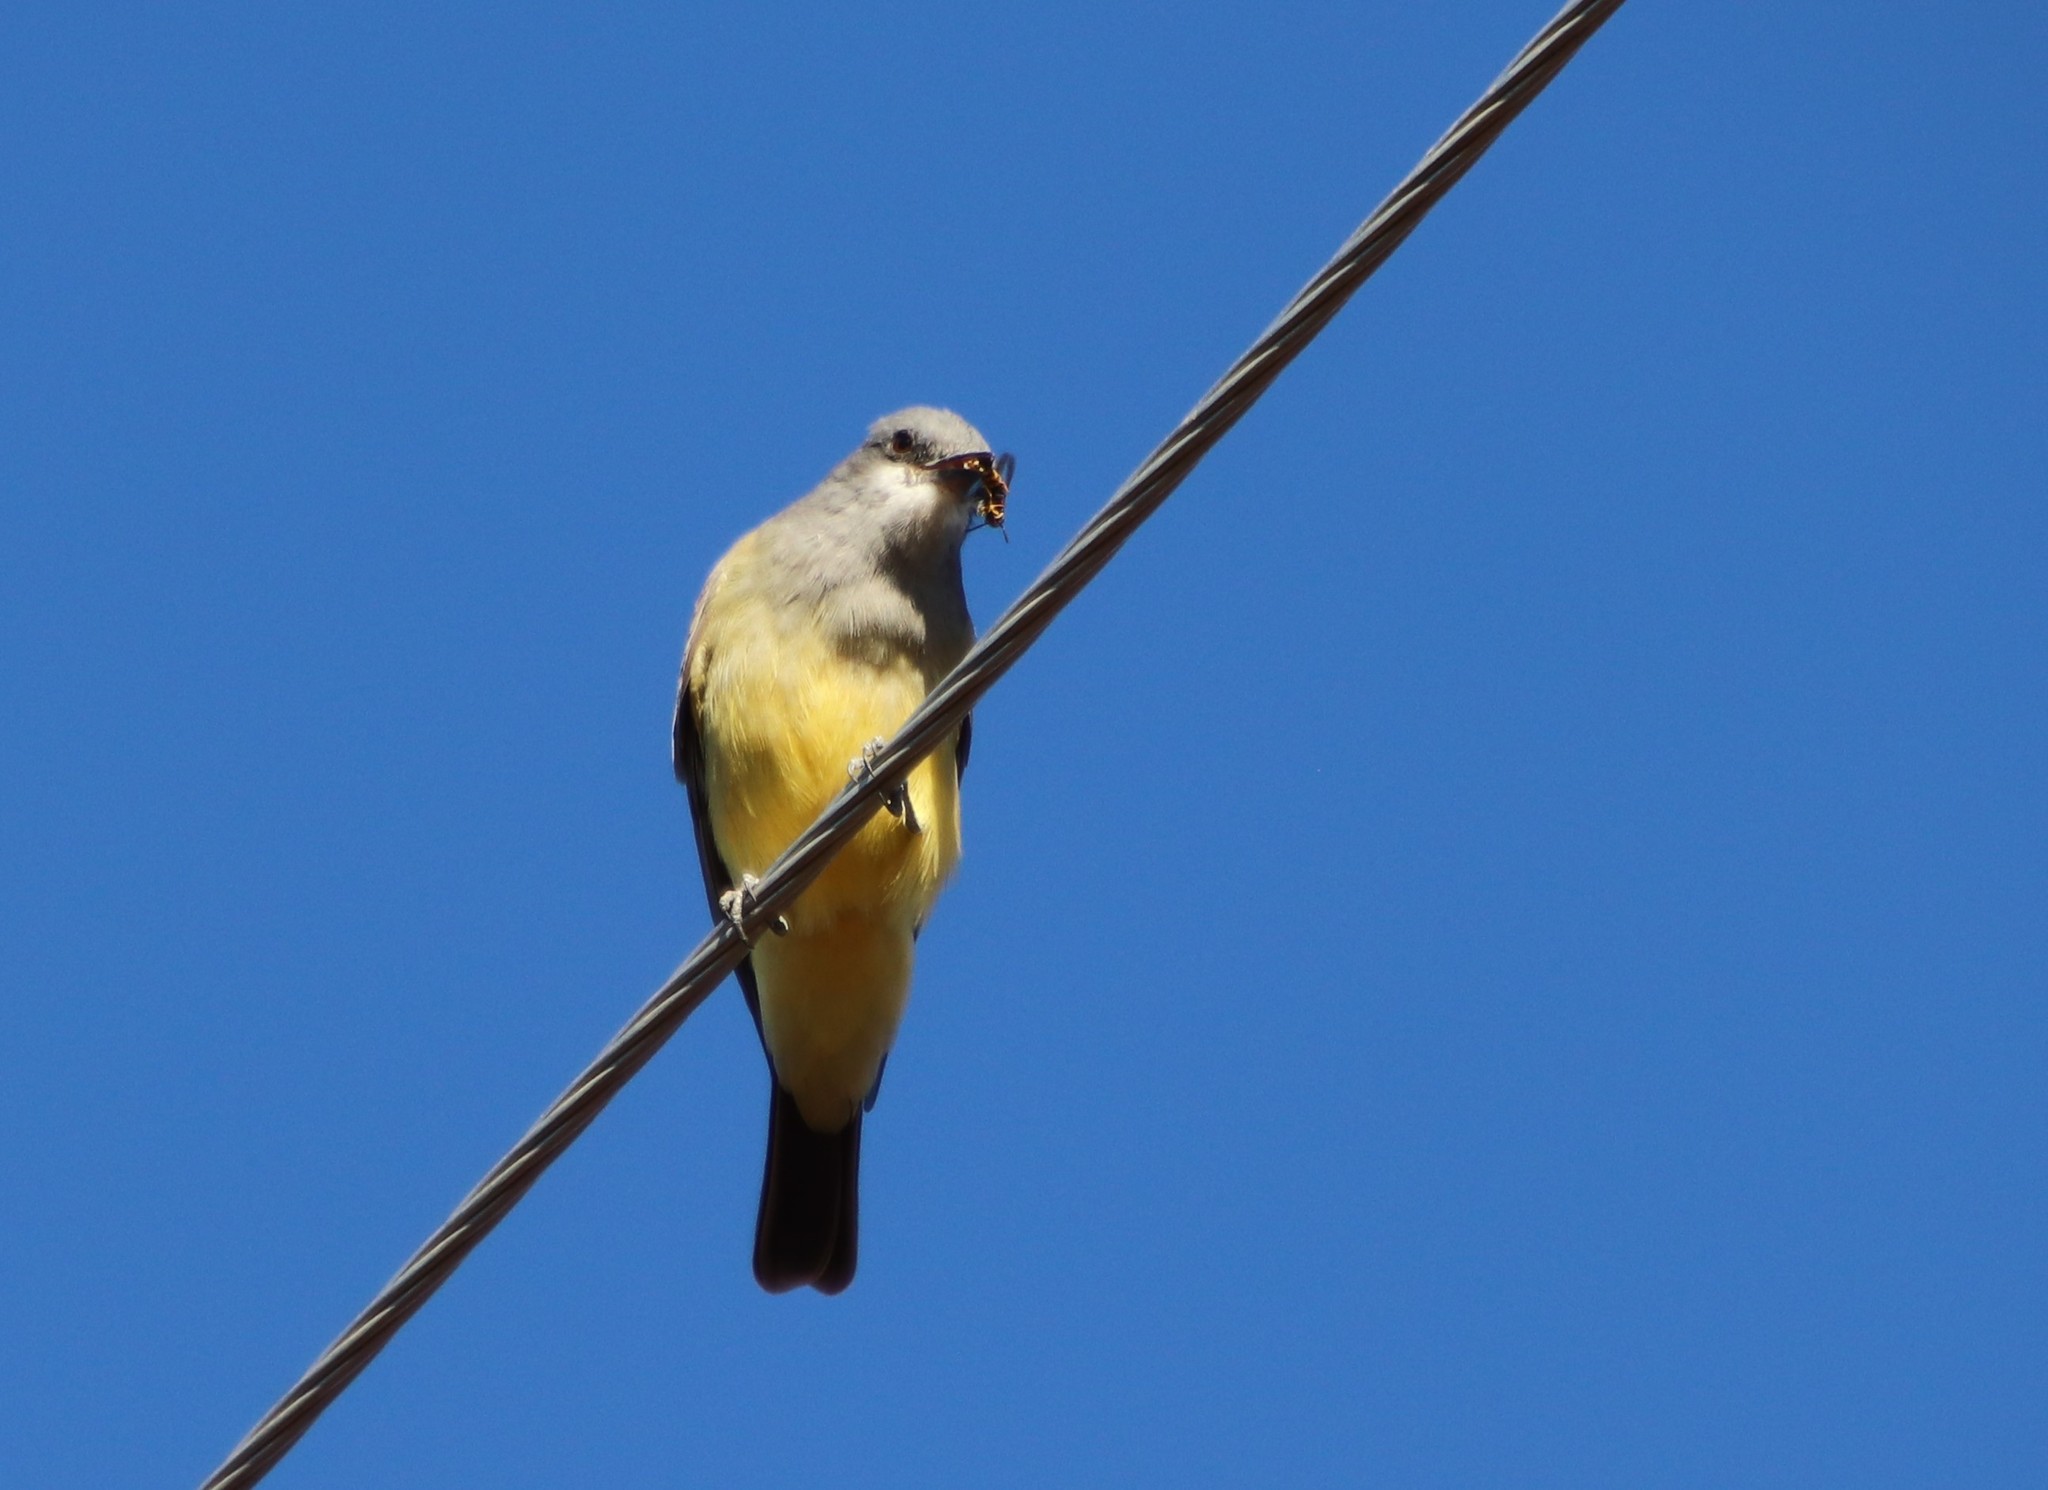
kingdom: Animalia
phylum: Chordata
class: Aves
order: Passeriformes
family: Tyrannidae
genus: Tyrannus
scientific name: Tyrannus vociferans
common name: Cassin's kingbird
